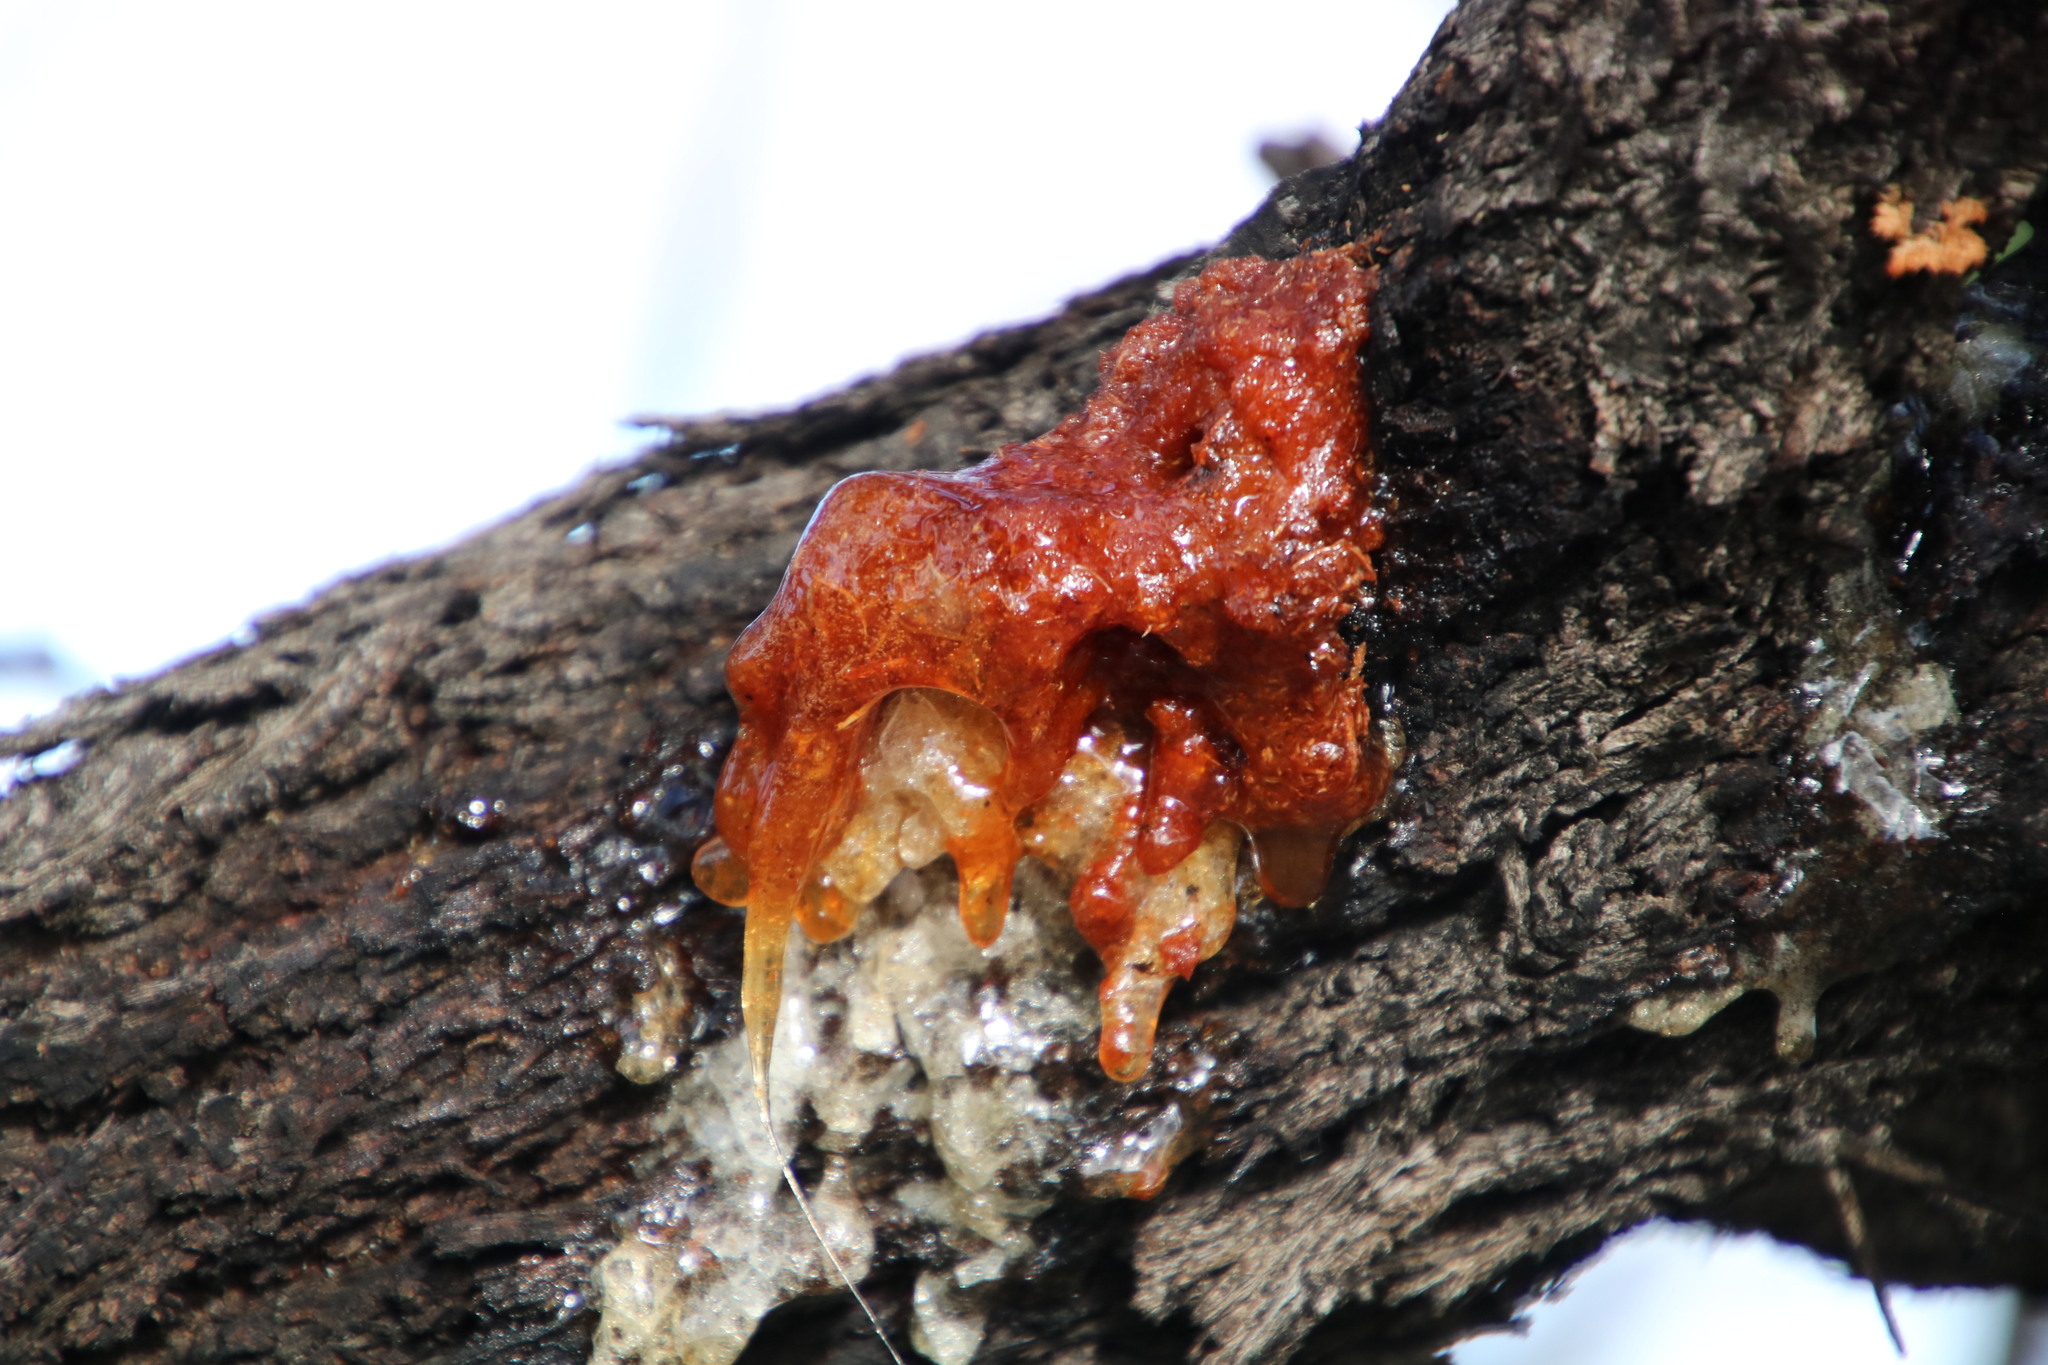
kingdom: Plantae
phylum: Tracheophyta
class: Magnoliopsida
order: Fabales
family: Fabaceae
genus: Vachellia
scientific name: Vachellia karroo
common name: Sweet thorn
